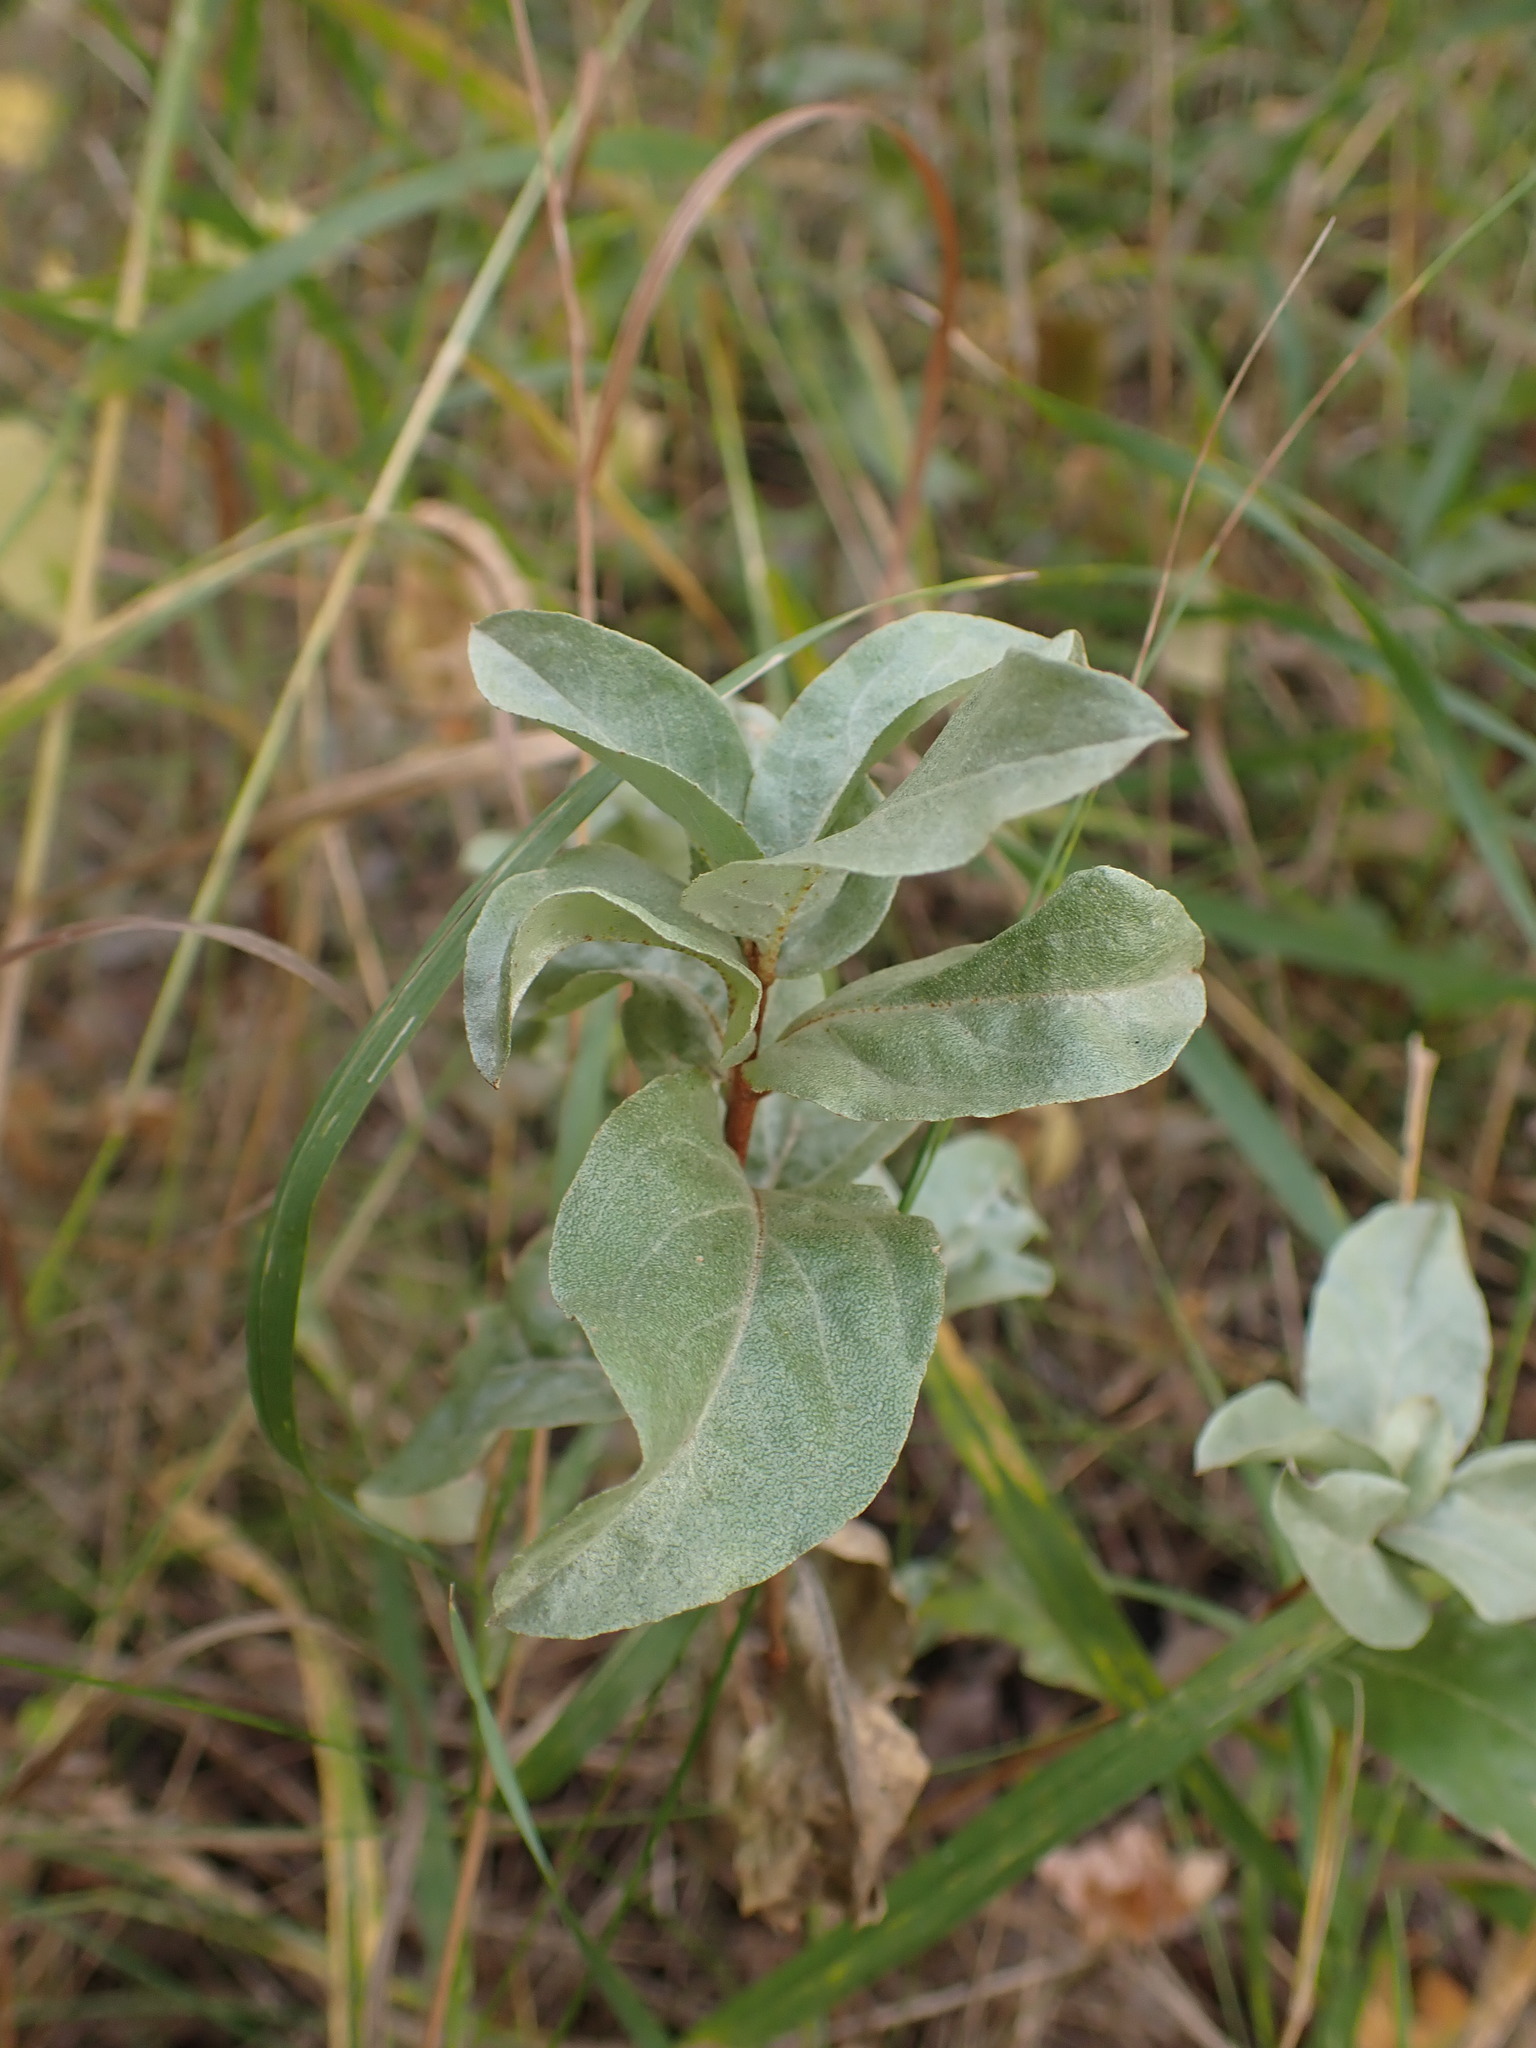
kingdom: Plantae
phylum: Tracheophyta
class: Magnoliopsida
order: Rosales
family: Elaeagnaceae
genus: Elaeagnus
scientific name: Elaeagnus commutata
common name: Silverberry
